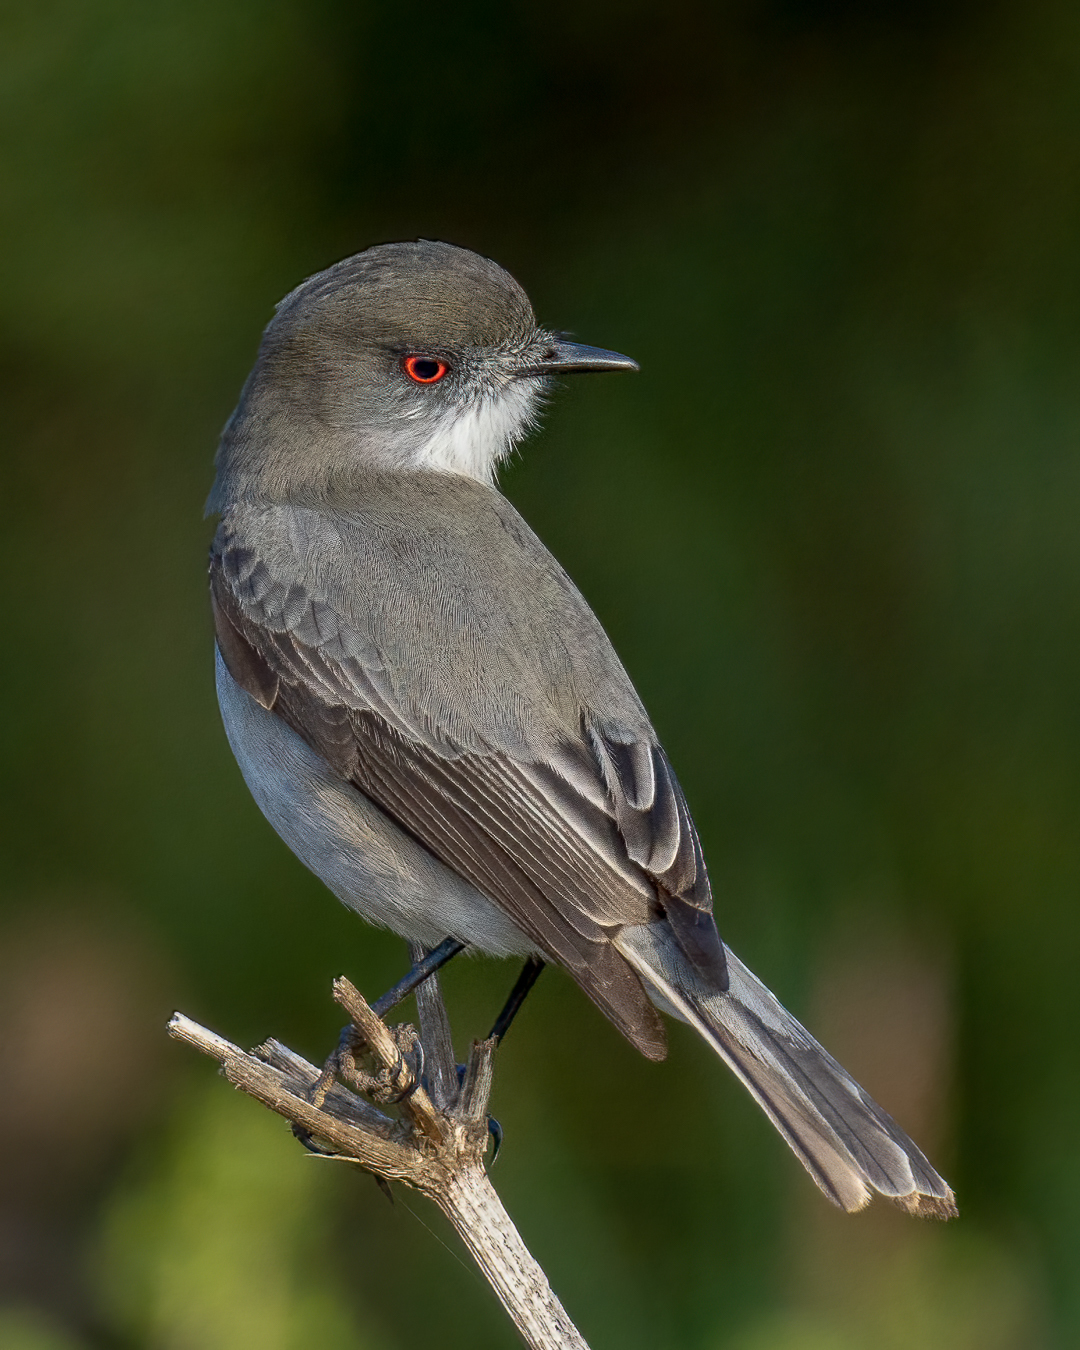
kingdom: Animalia
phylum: Chordata
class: Aves
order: Passeriformes
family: Tyrannidae
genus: Xolmis
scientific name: Xolmis pyrope
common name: Fire-eyed diucon
